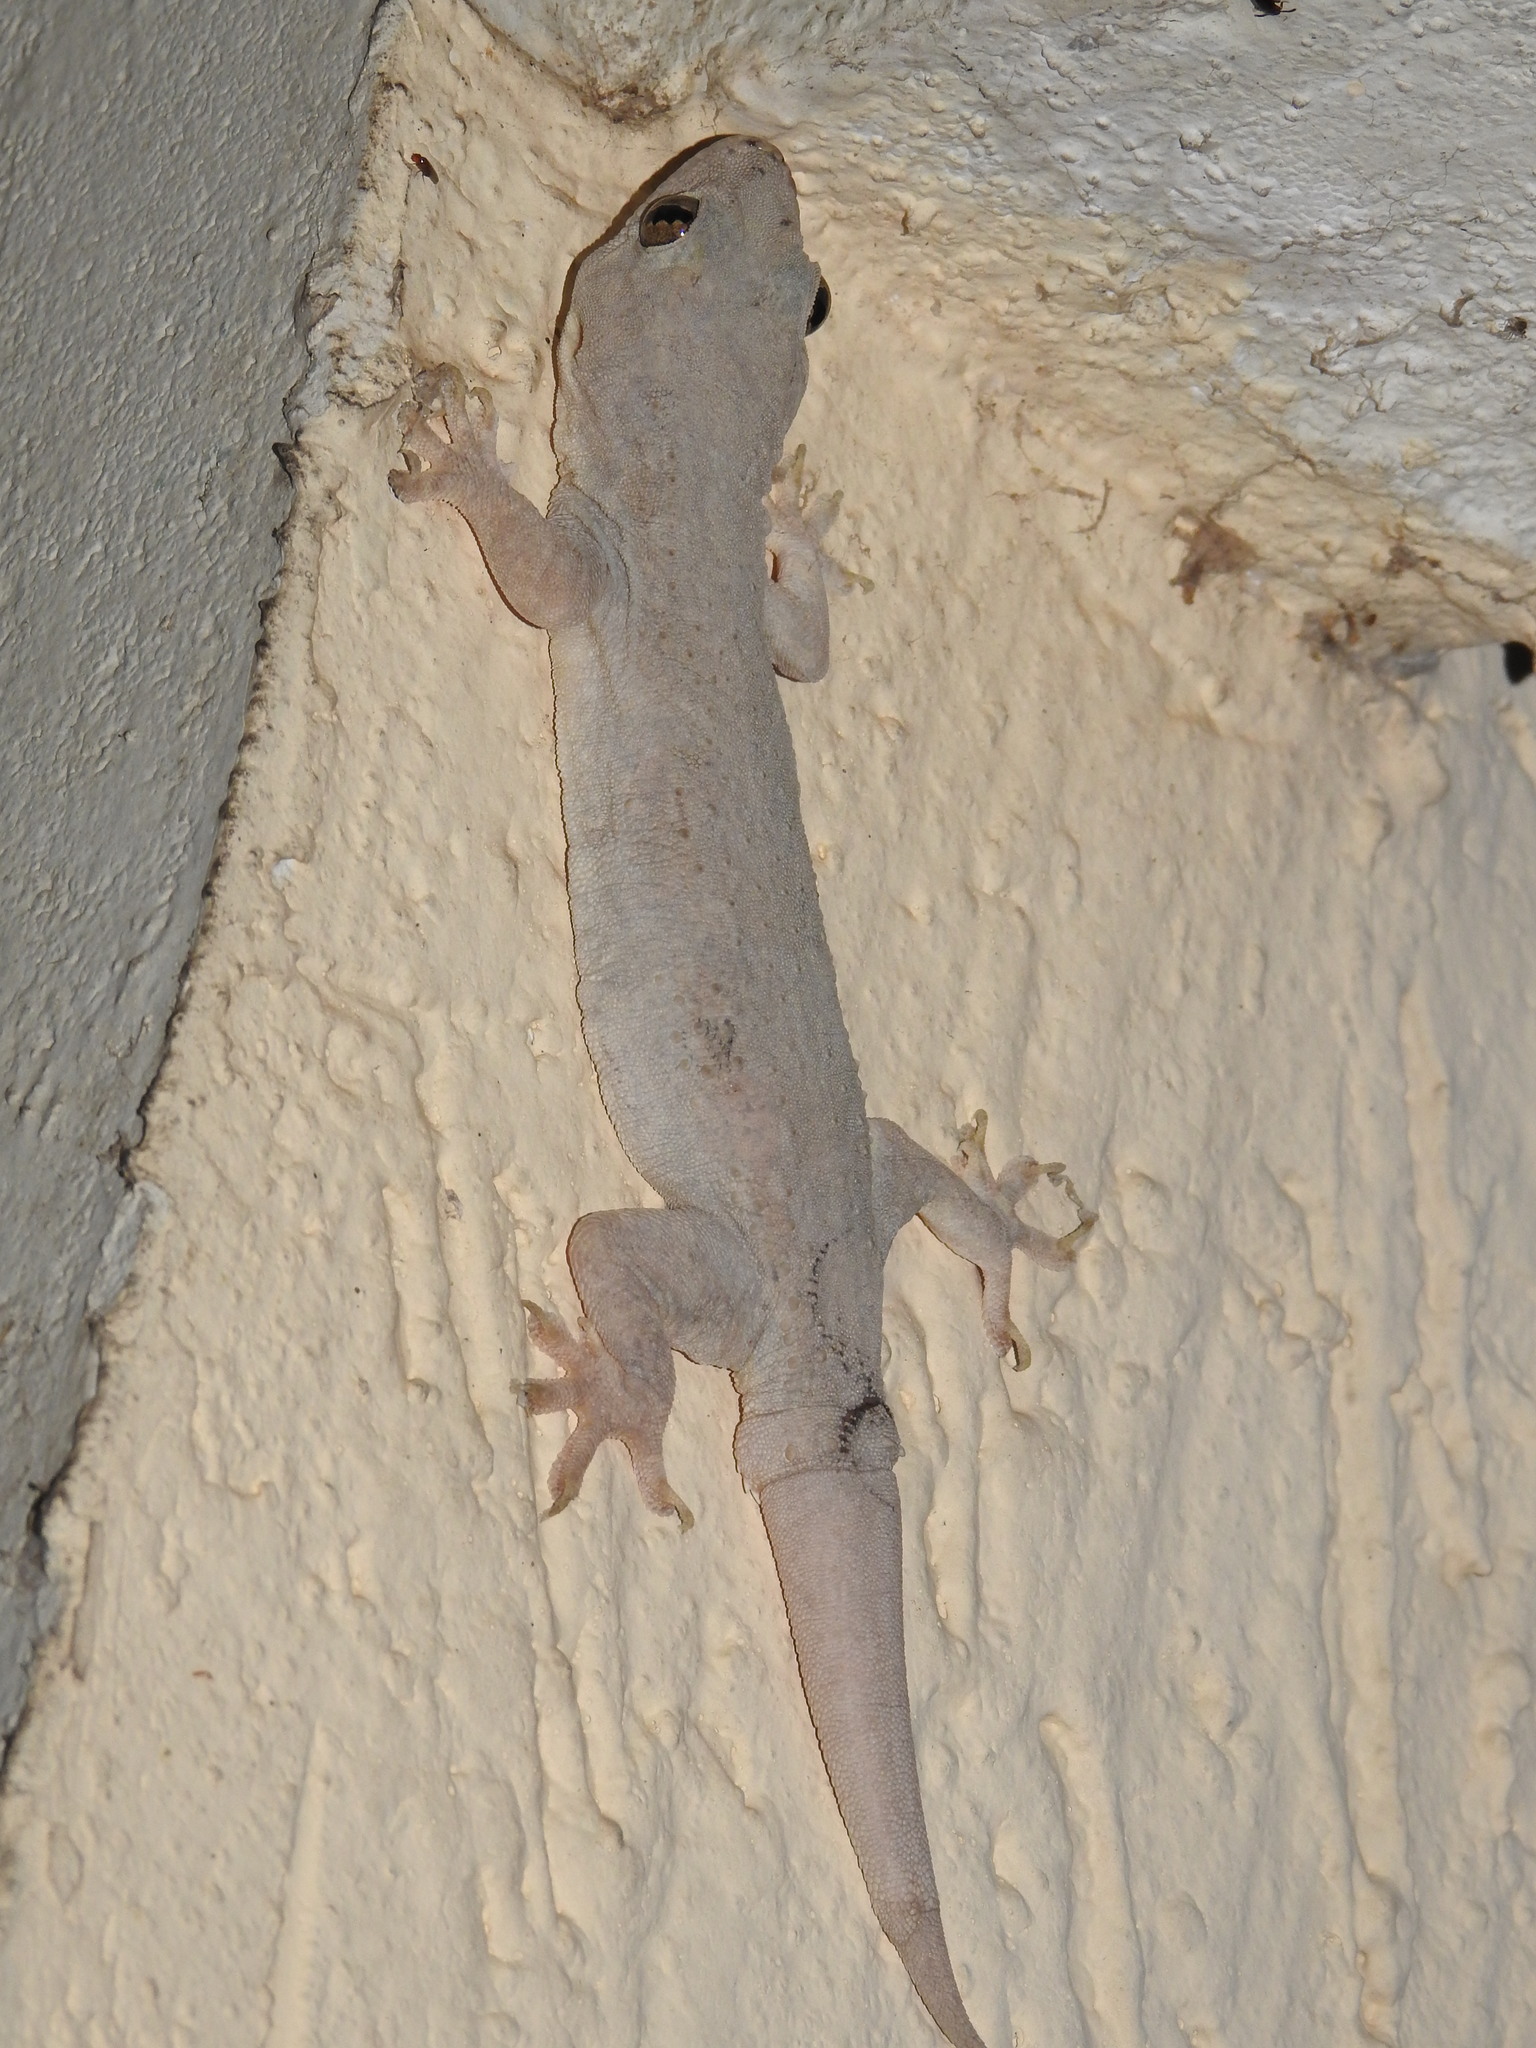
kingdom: Animalia
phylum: Chordata
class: Squamata
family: Gekkonidae
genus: Hemidactylus
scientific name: Hemidactylus flaviviridis
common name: Northern house gecko
